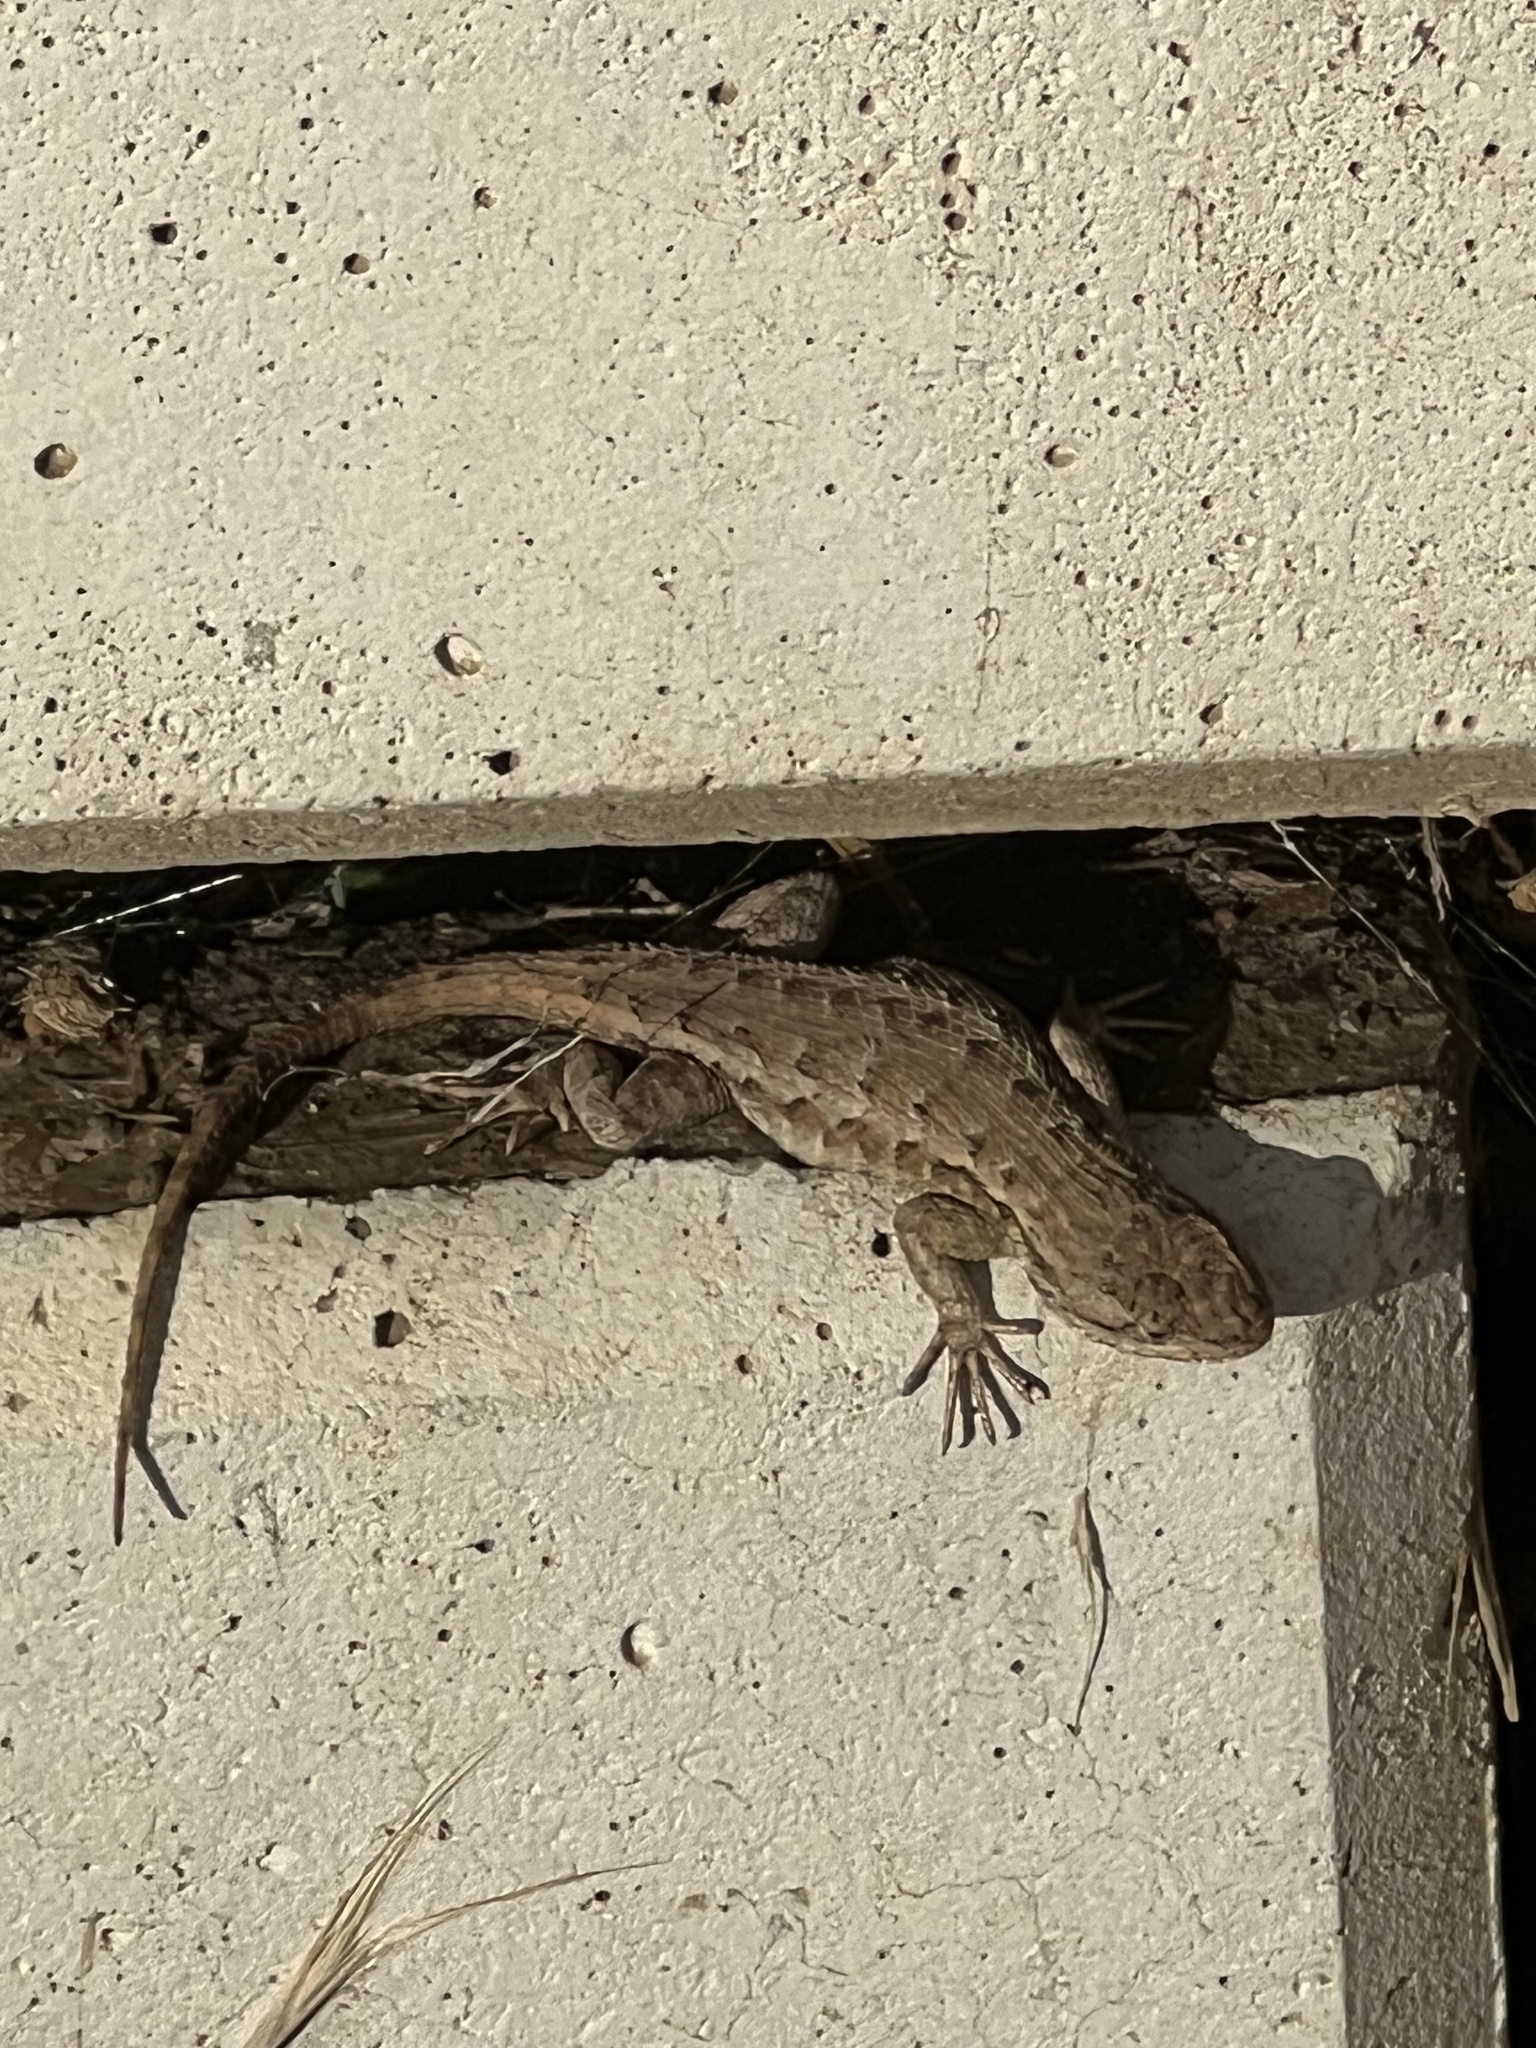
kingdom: Animalia
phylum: Chordata
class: Squamata
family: Phrynosomatidae
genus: Sceloporus
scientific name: Sceloporus occidentalis
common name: Western fence lizard
